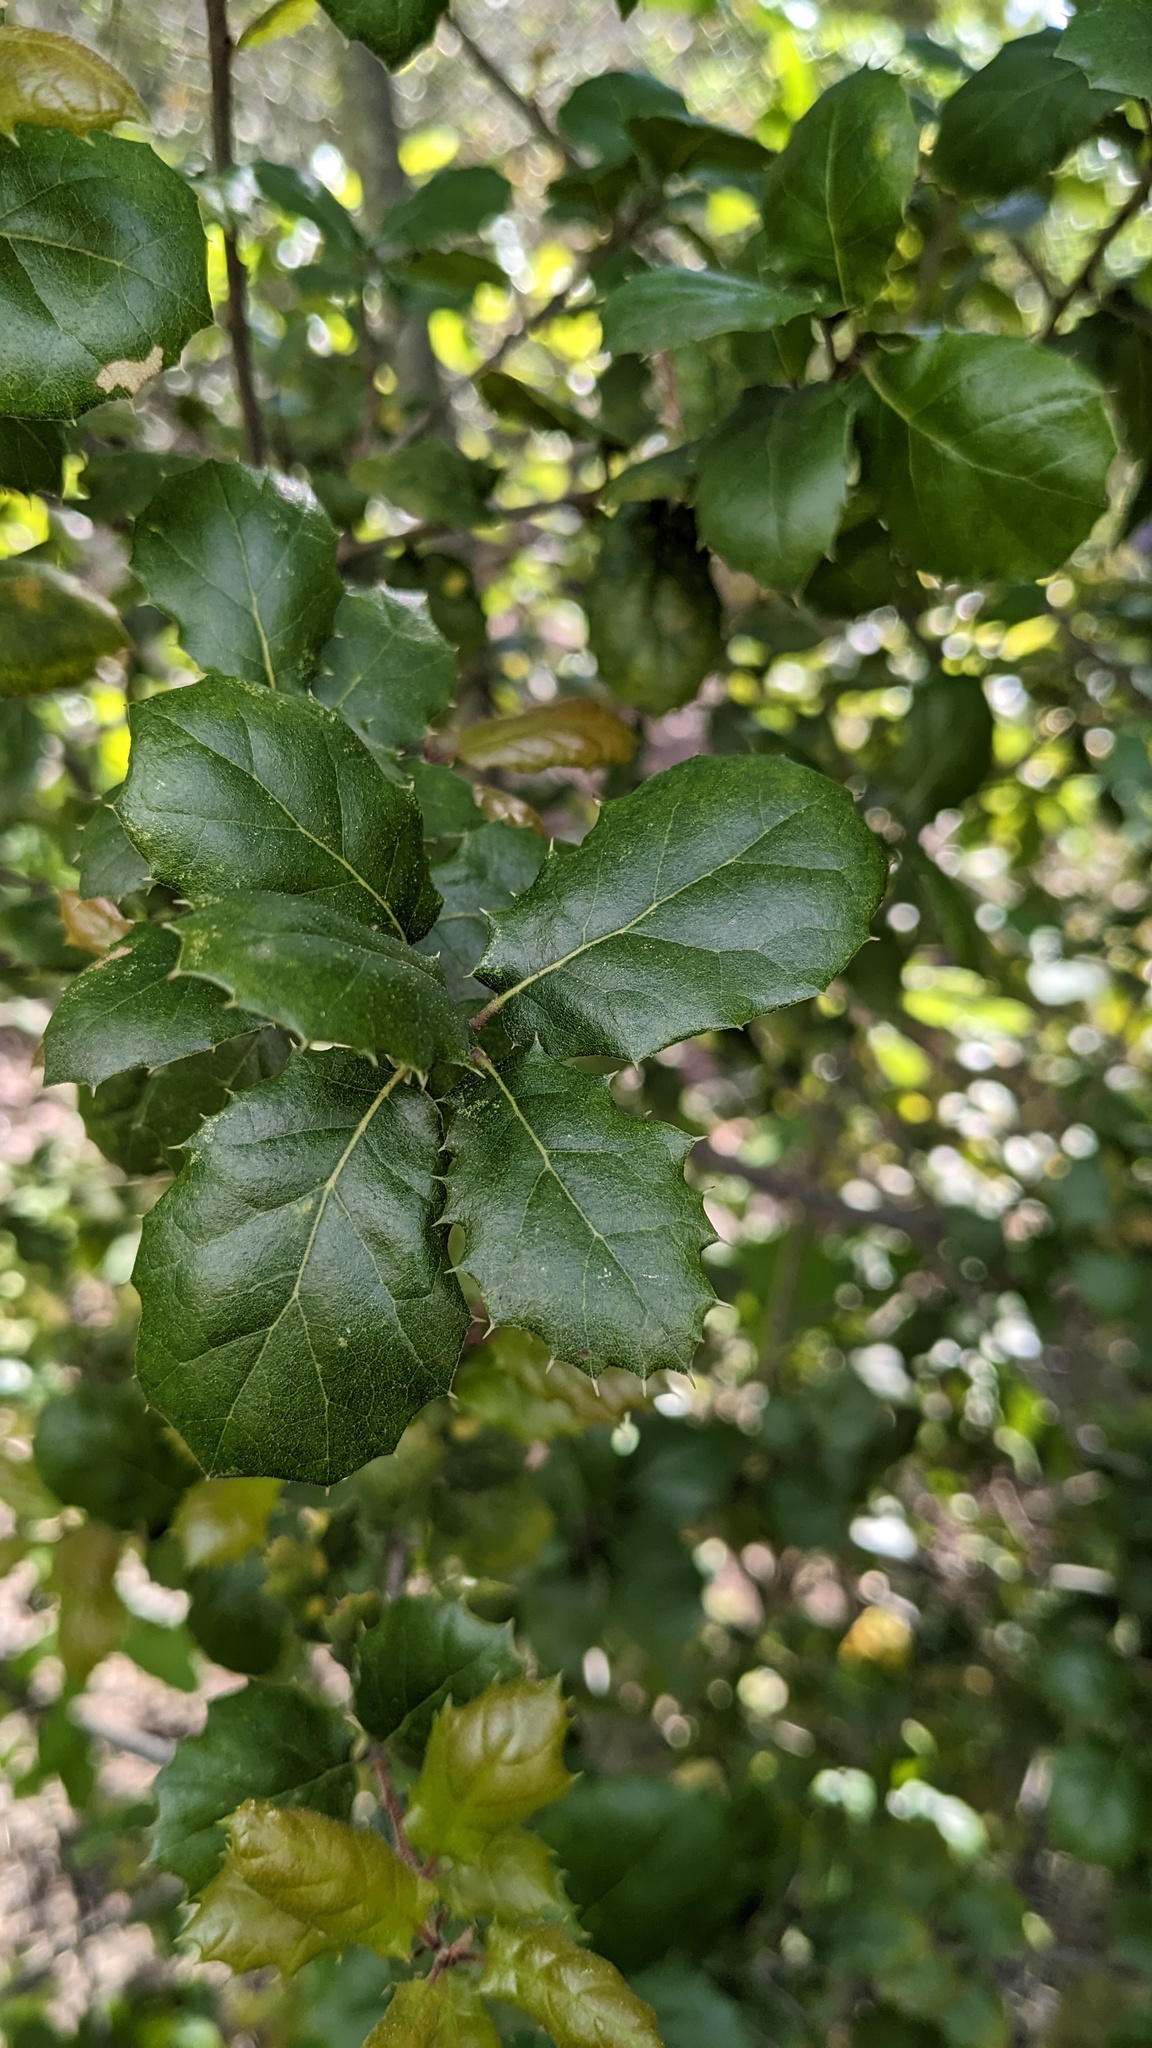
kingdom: Plantae
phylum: Tracheophyta
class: Magnoliopsida
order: Fagales
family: Fagaceae
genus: Quercus
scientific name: Quercus agrifolia
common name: California live oak
